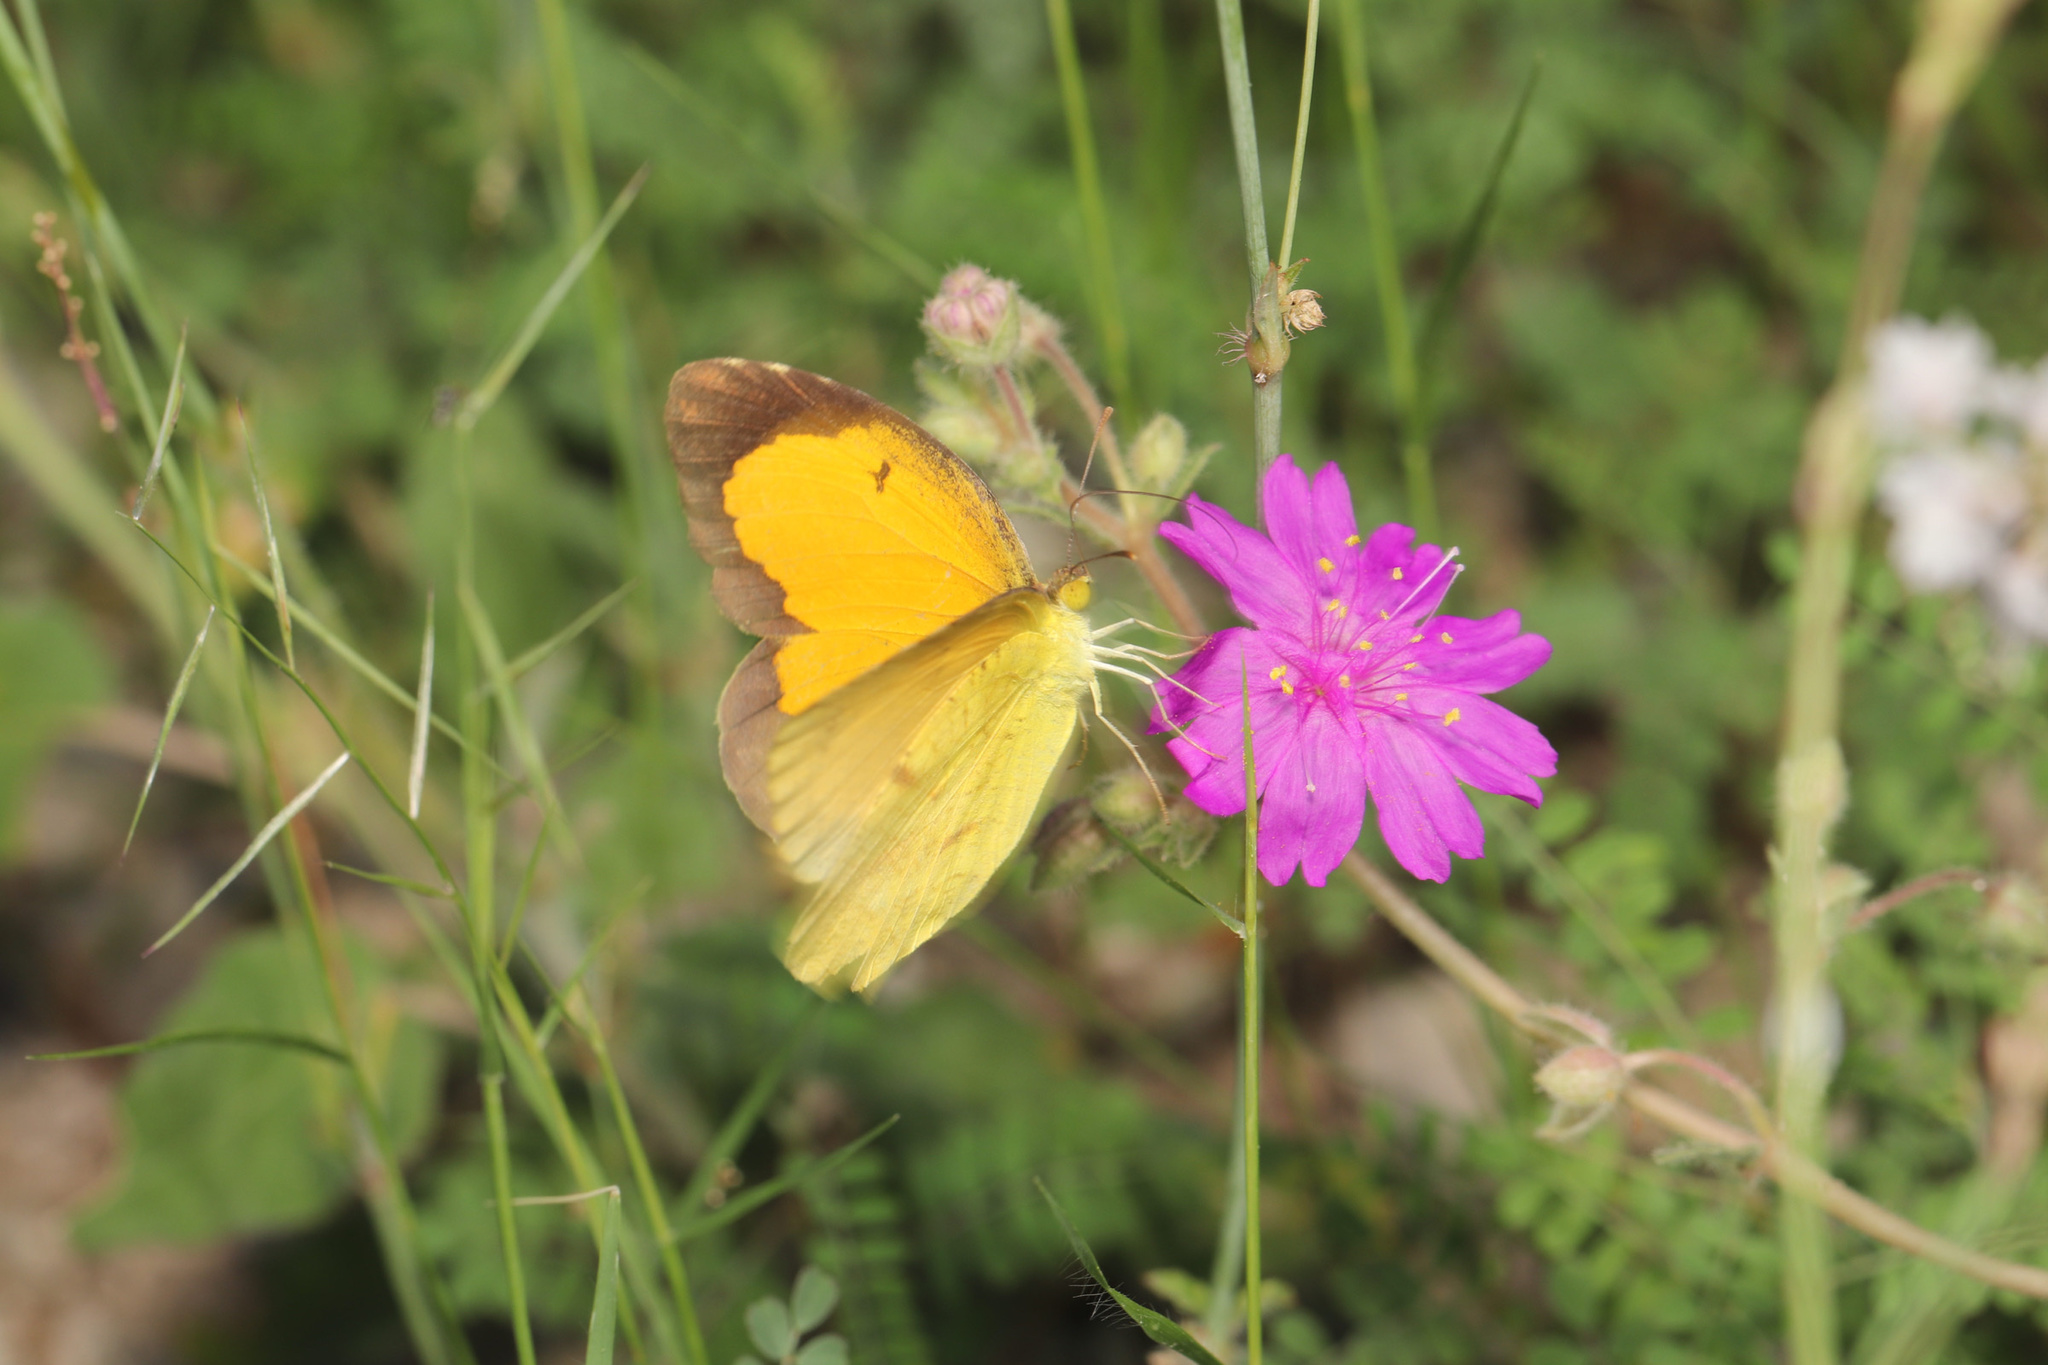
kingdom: Animalia
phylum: Arthropoda
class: Insecta
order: Lepidoptera
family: Pieridae
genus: Abaeis
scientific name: Abaeis nicippe
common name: Sleepy orange
